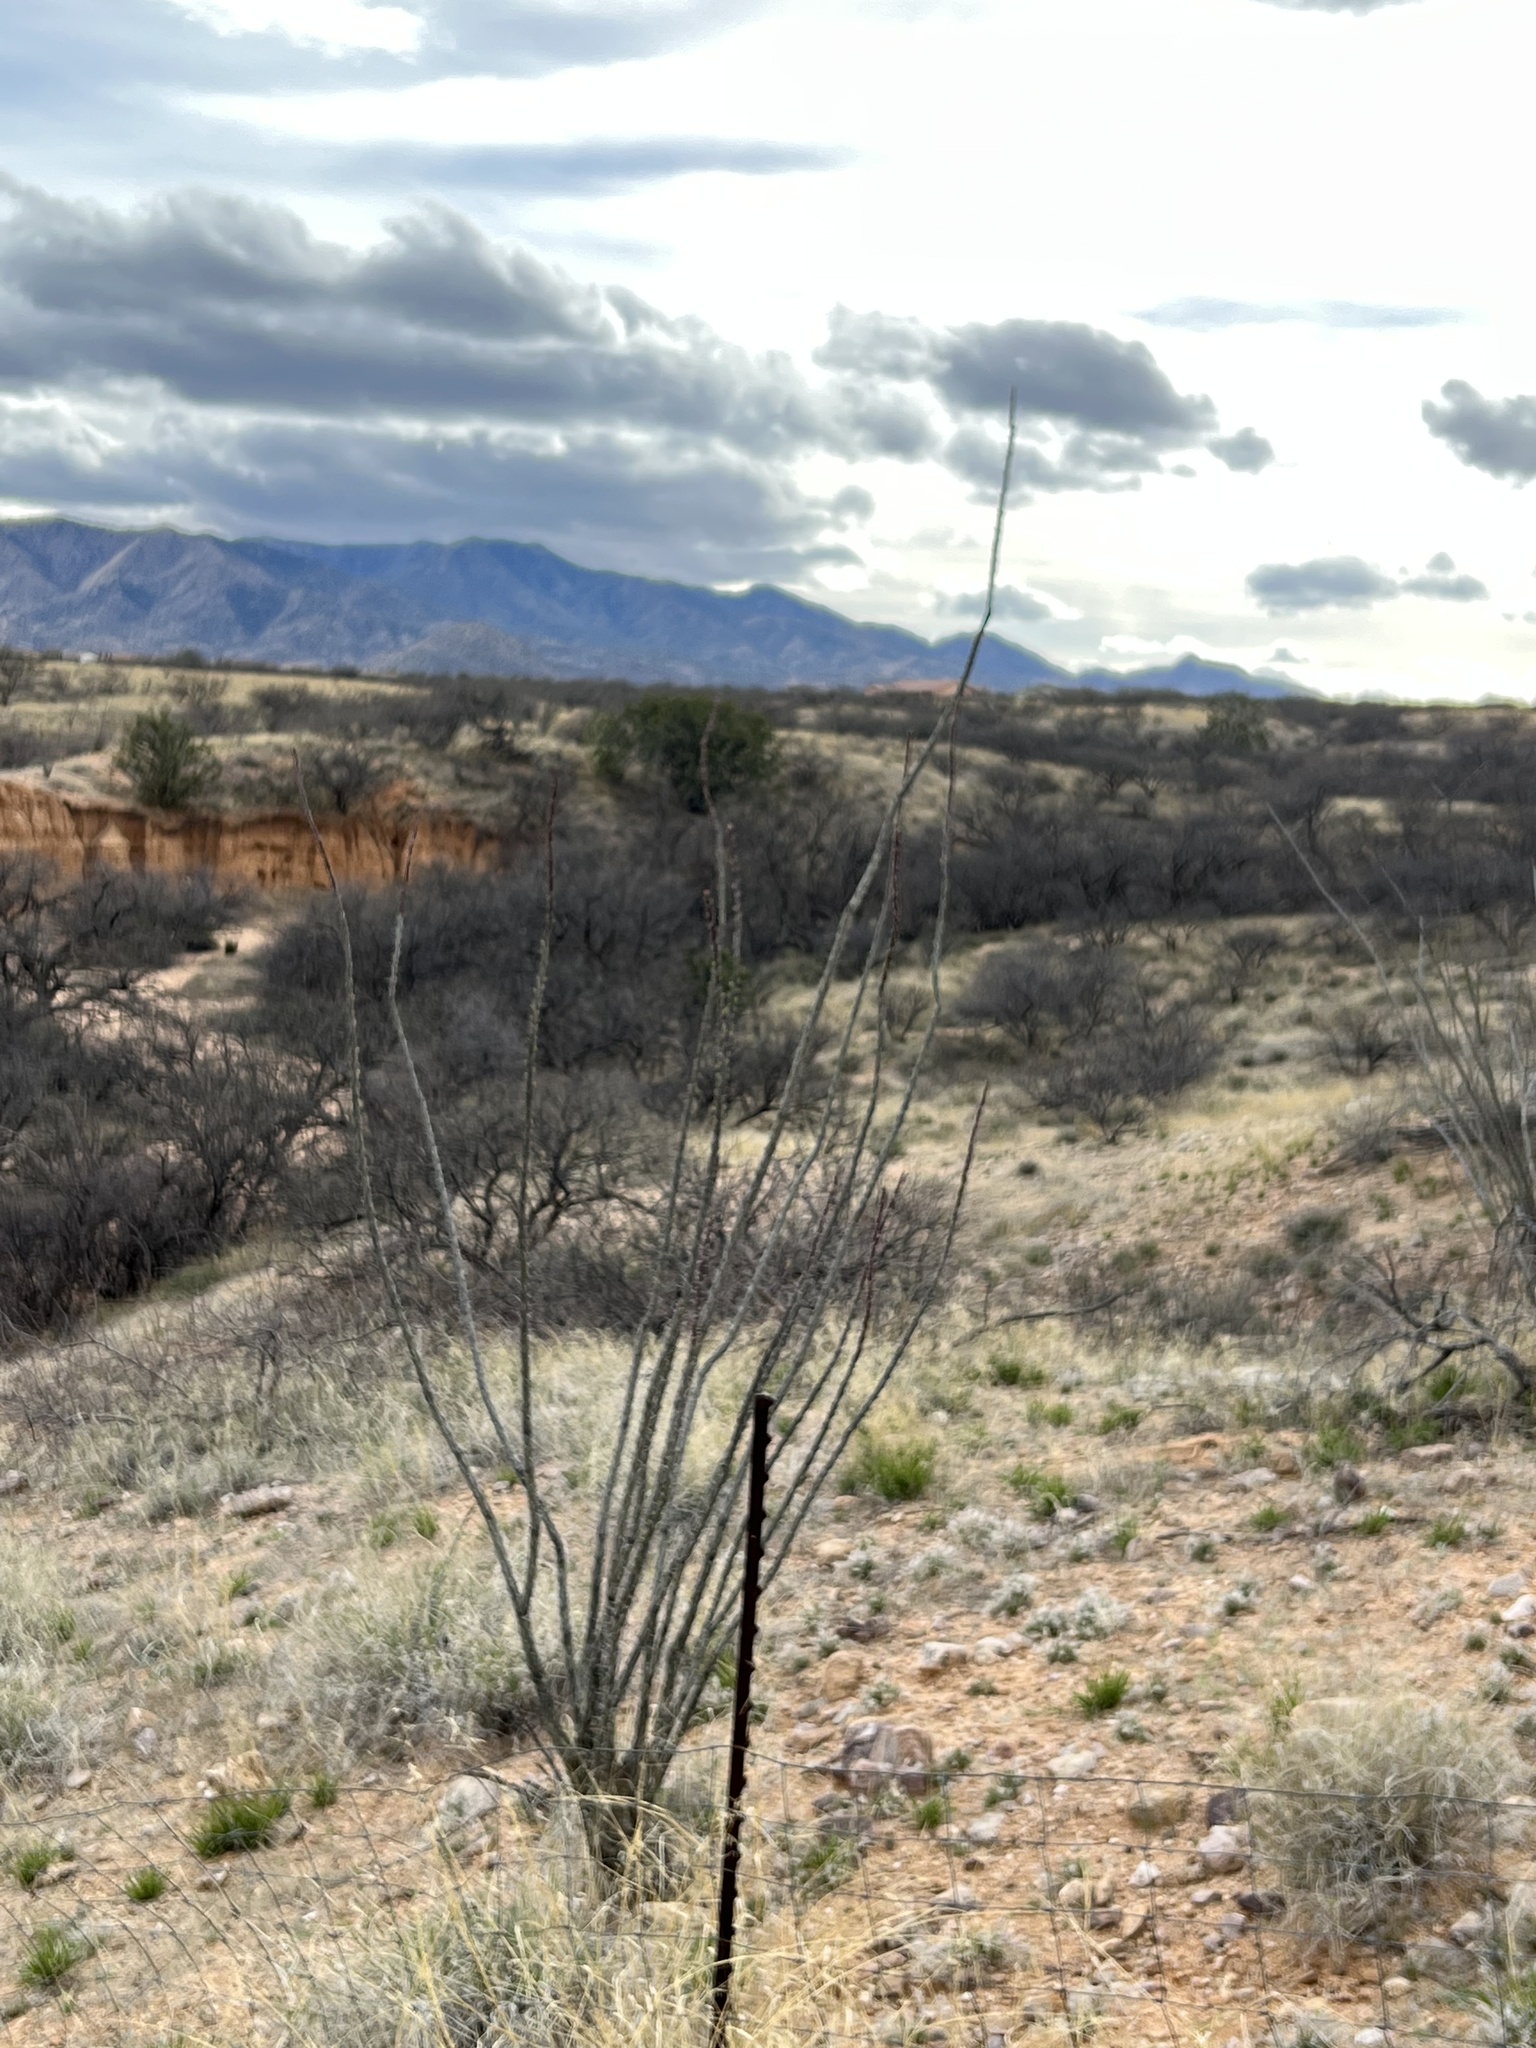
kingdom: Plantae
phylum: Tracheophyta
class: Magnoliopsida
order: Ericales
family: Fouquieriaceae
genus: Fouquieria
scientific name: Fouquieria splendens
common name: Vine-cactus
